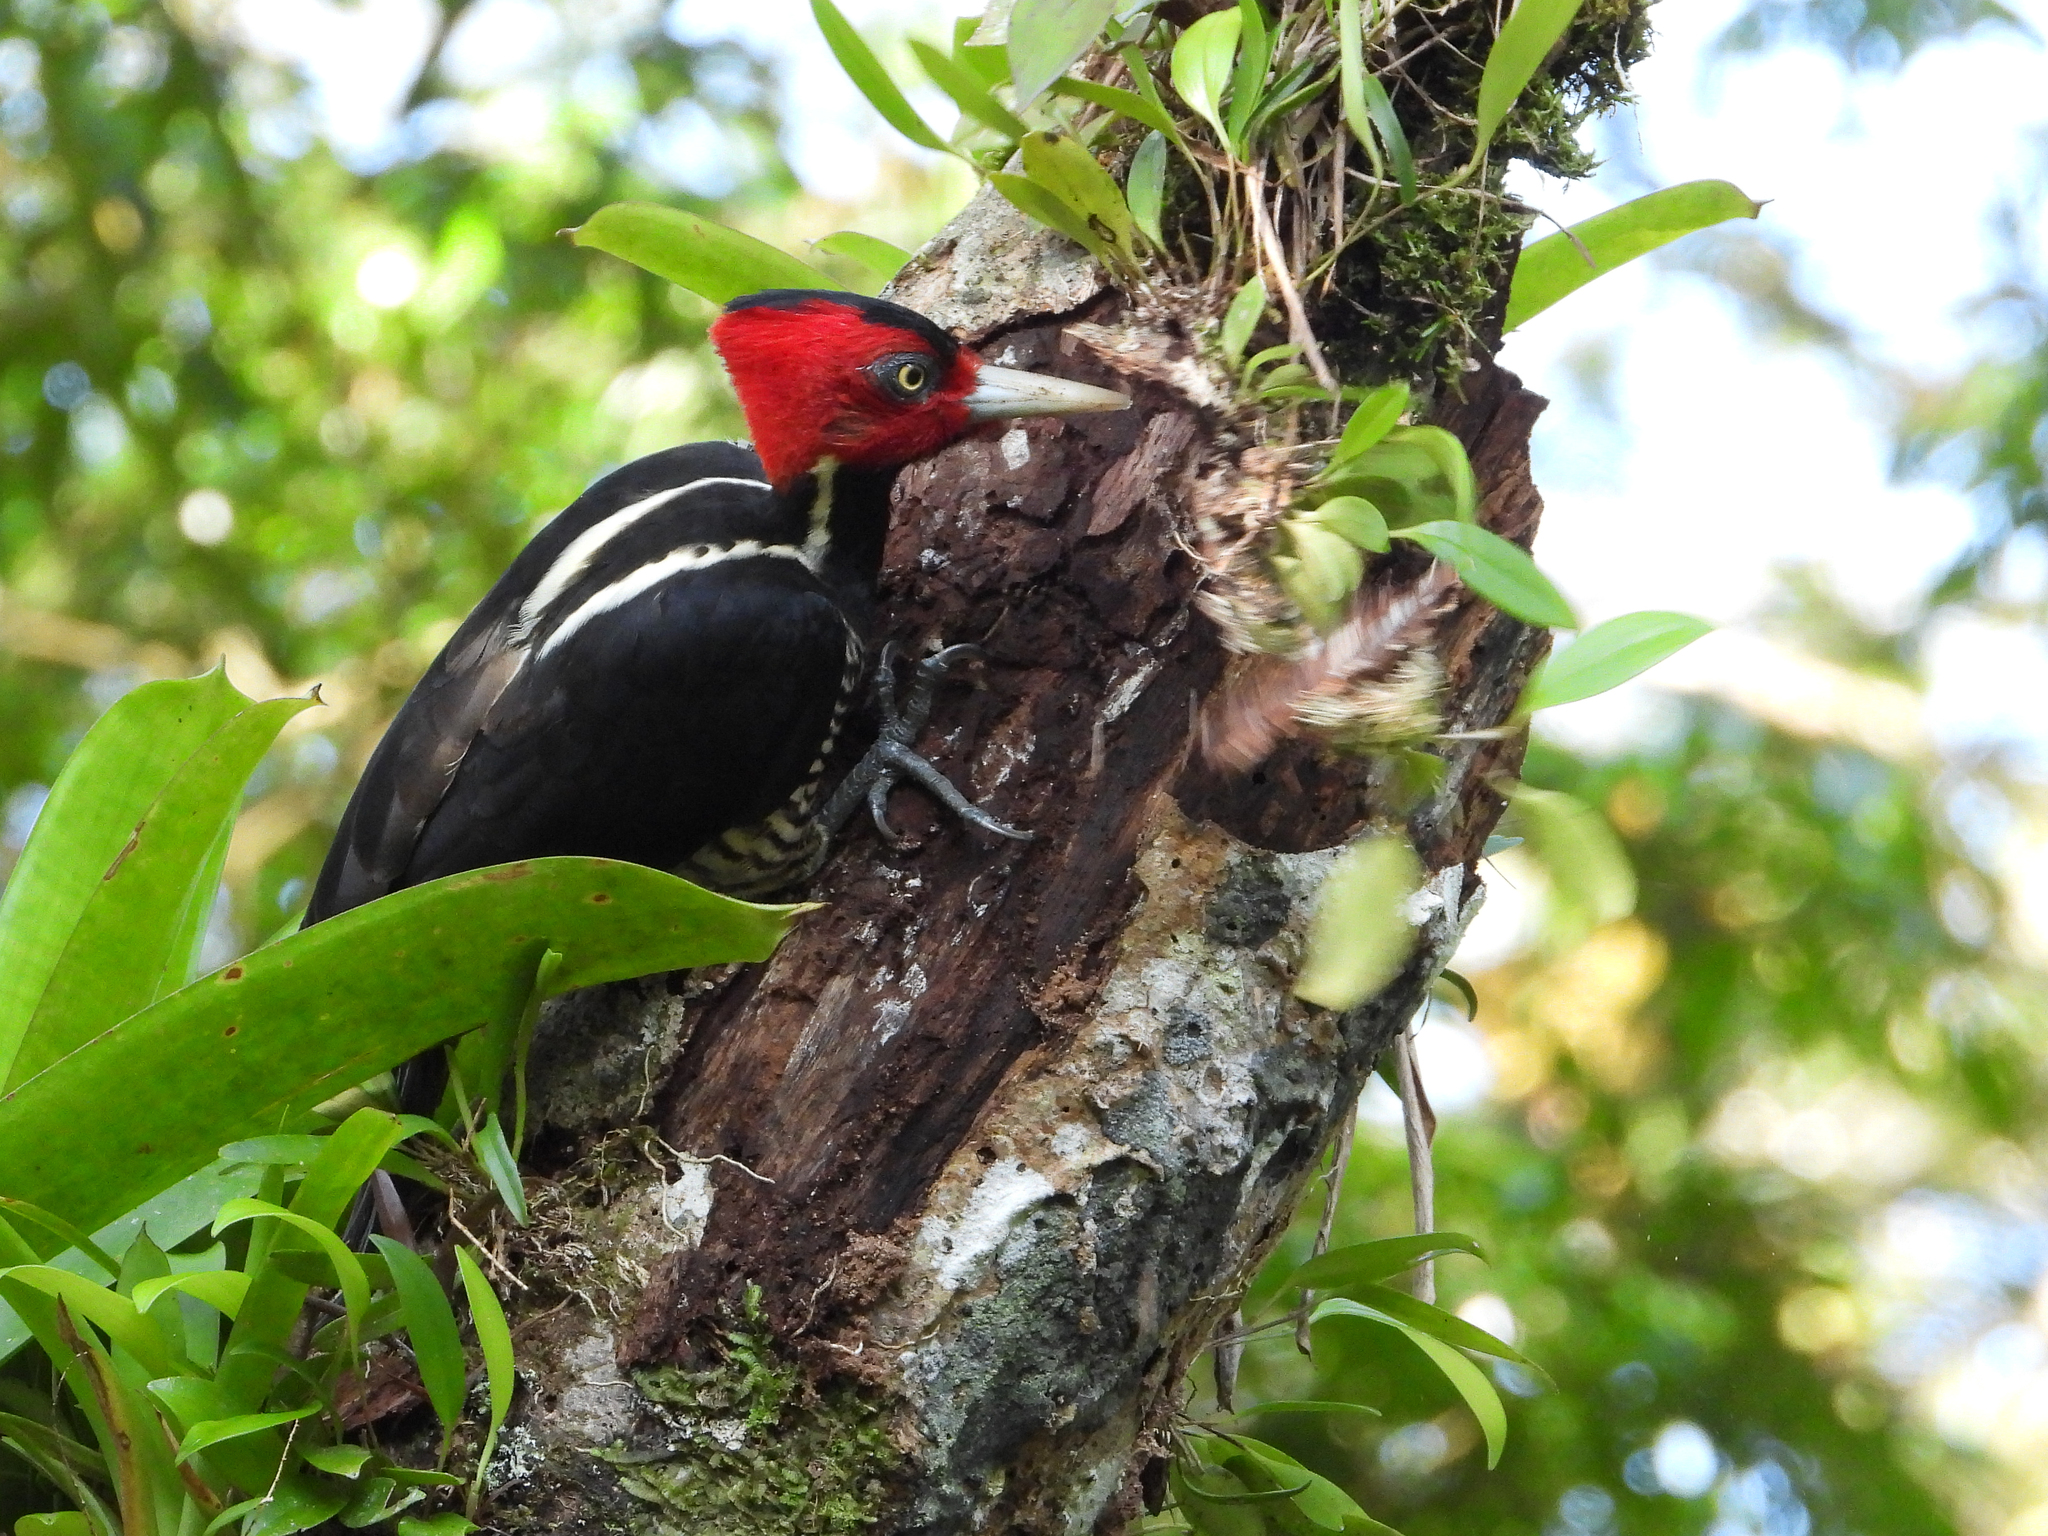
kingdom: Animalia
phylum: Chordata
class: Aves
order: Piciformes
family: Picidae
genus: Campephilus
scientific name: Campephilus guatemalensis
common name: Pale-billed woodpecker
